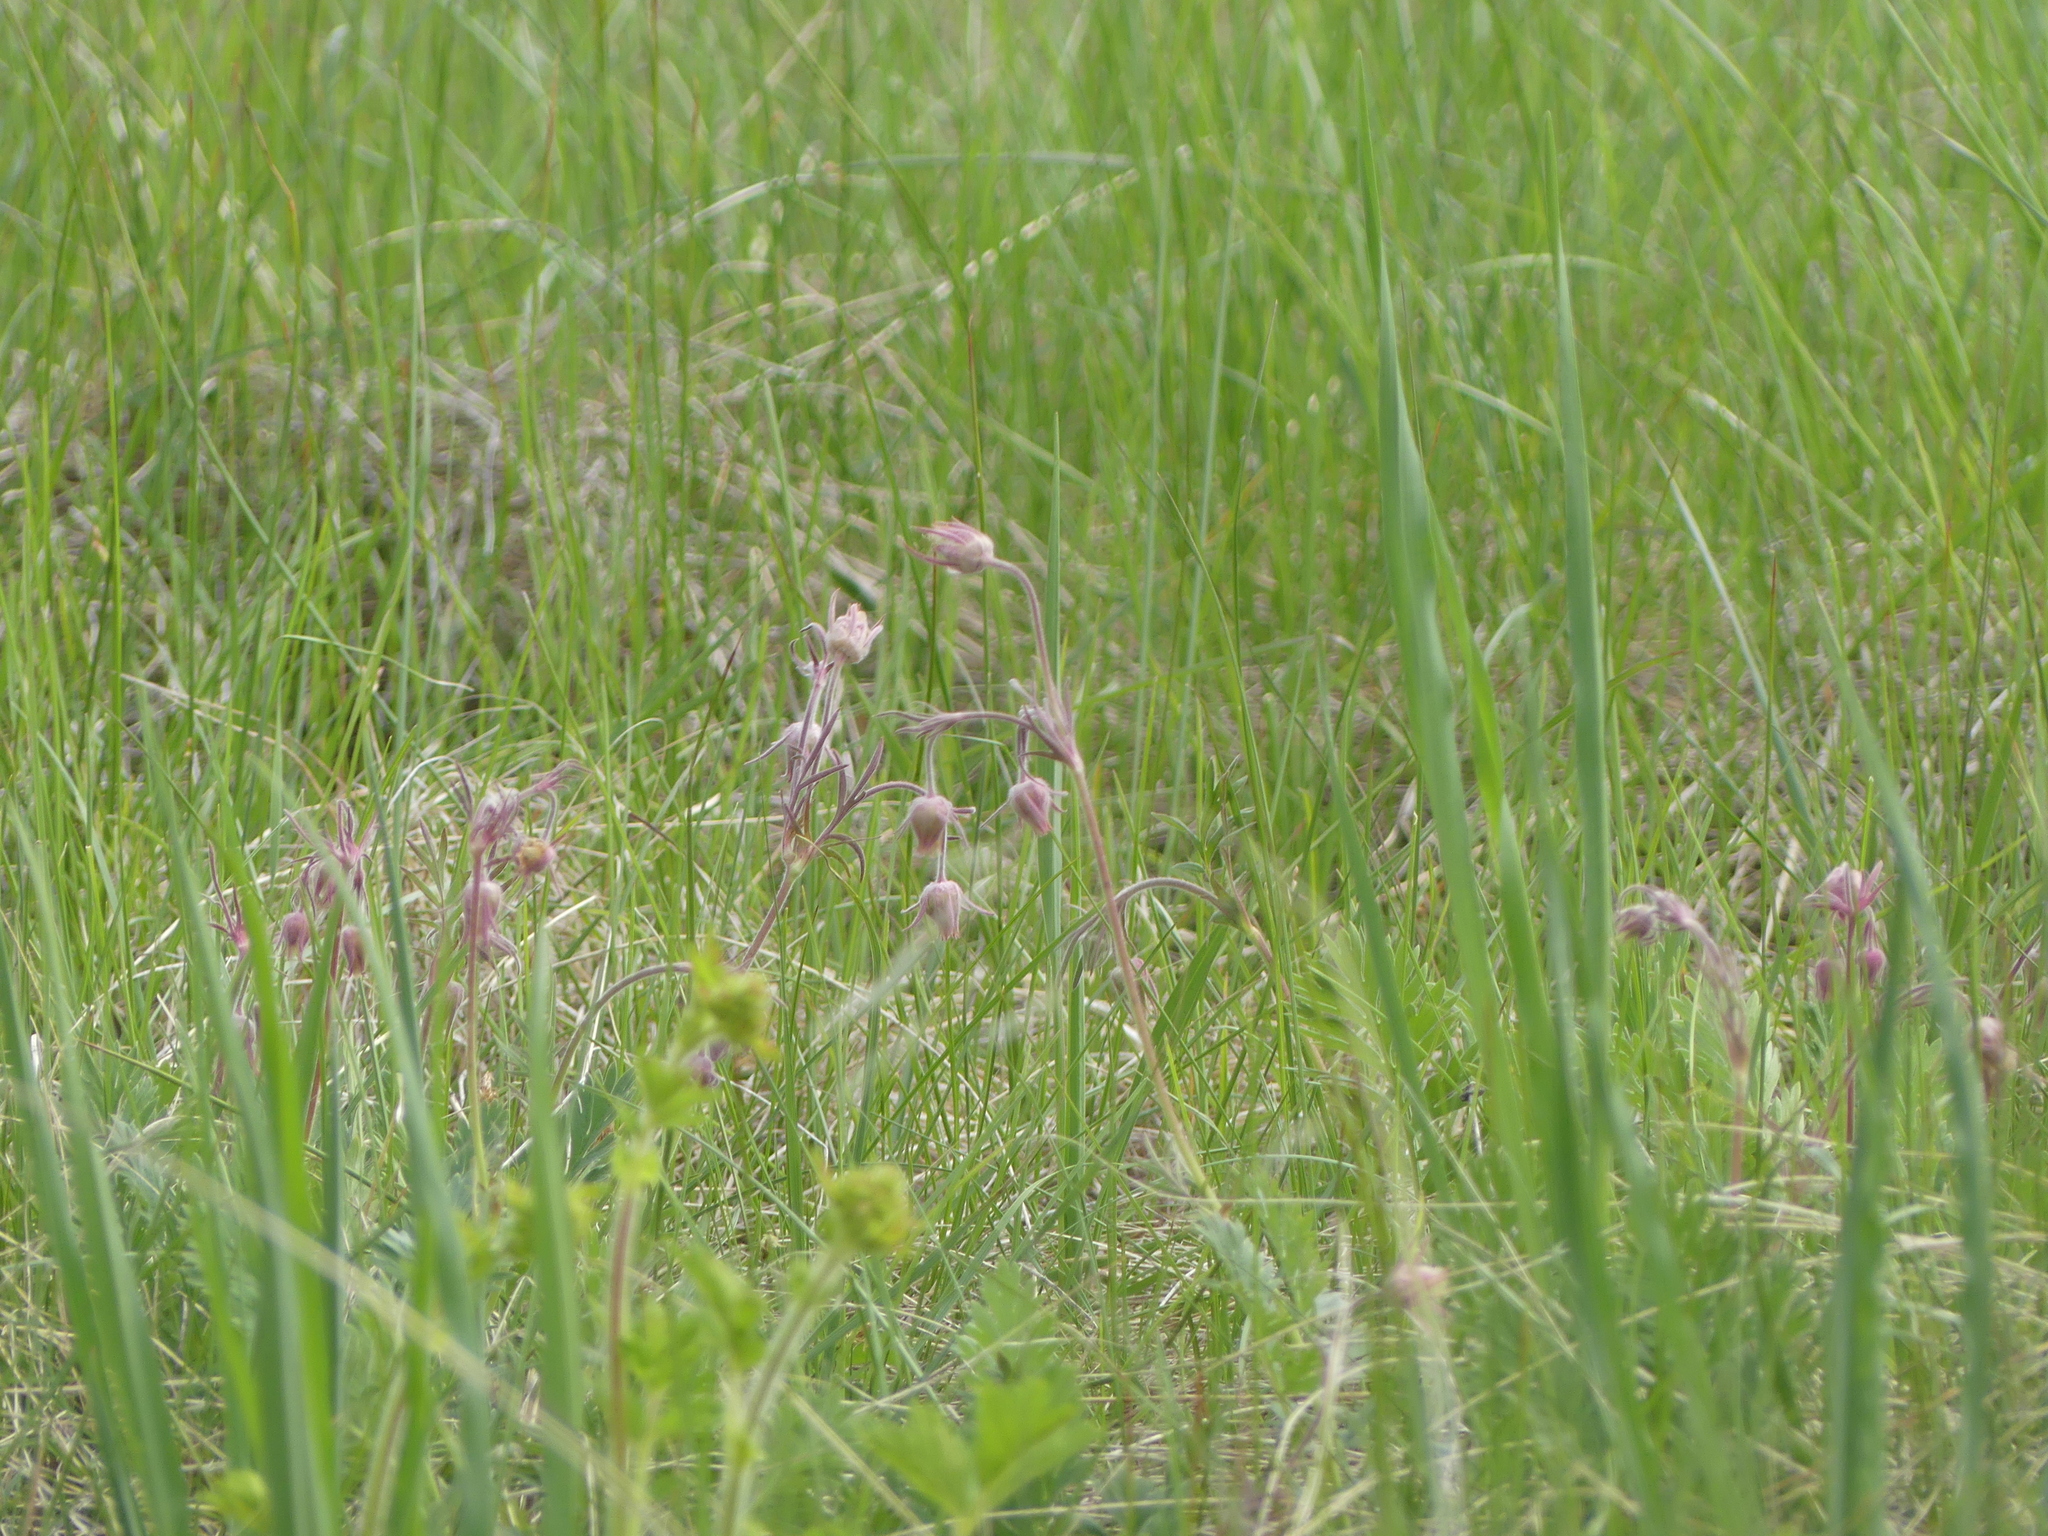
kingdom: Plantae
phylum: Tracheophyta
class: Magnoliopsida
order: Rosales
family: Rosaceae
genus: Geum
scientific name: Geum triflorum
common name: Old man's whiskers
